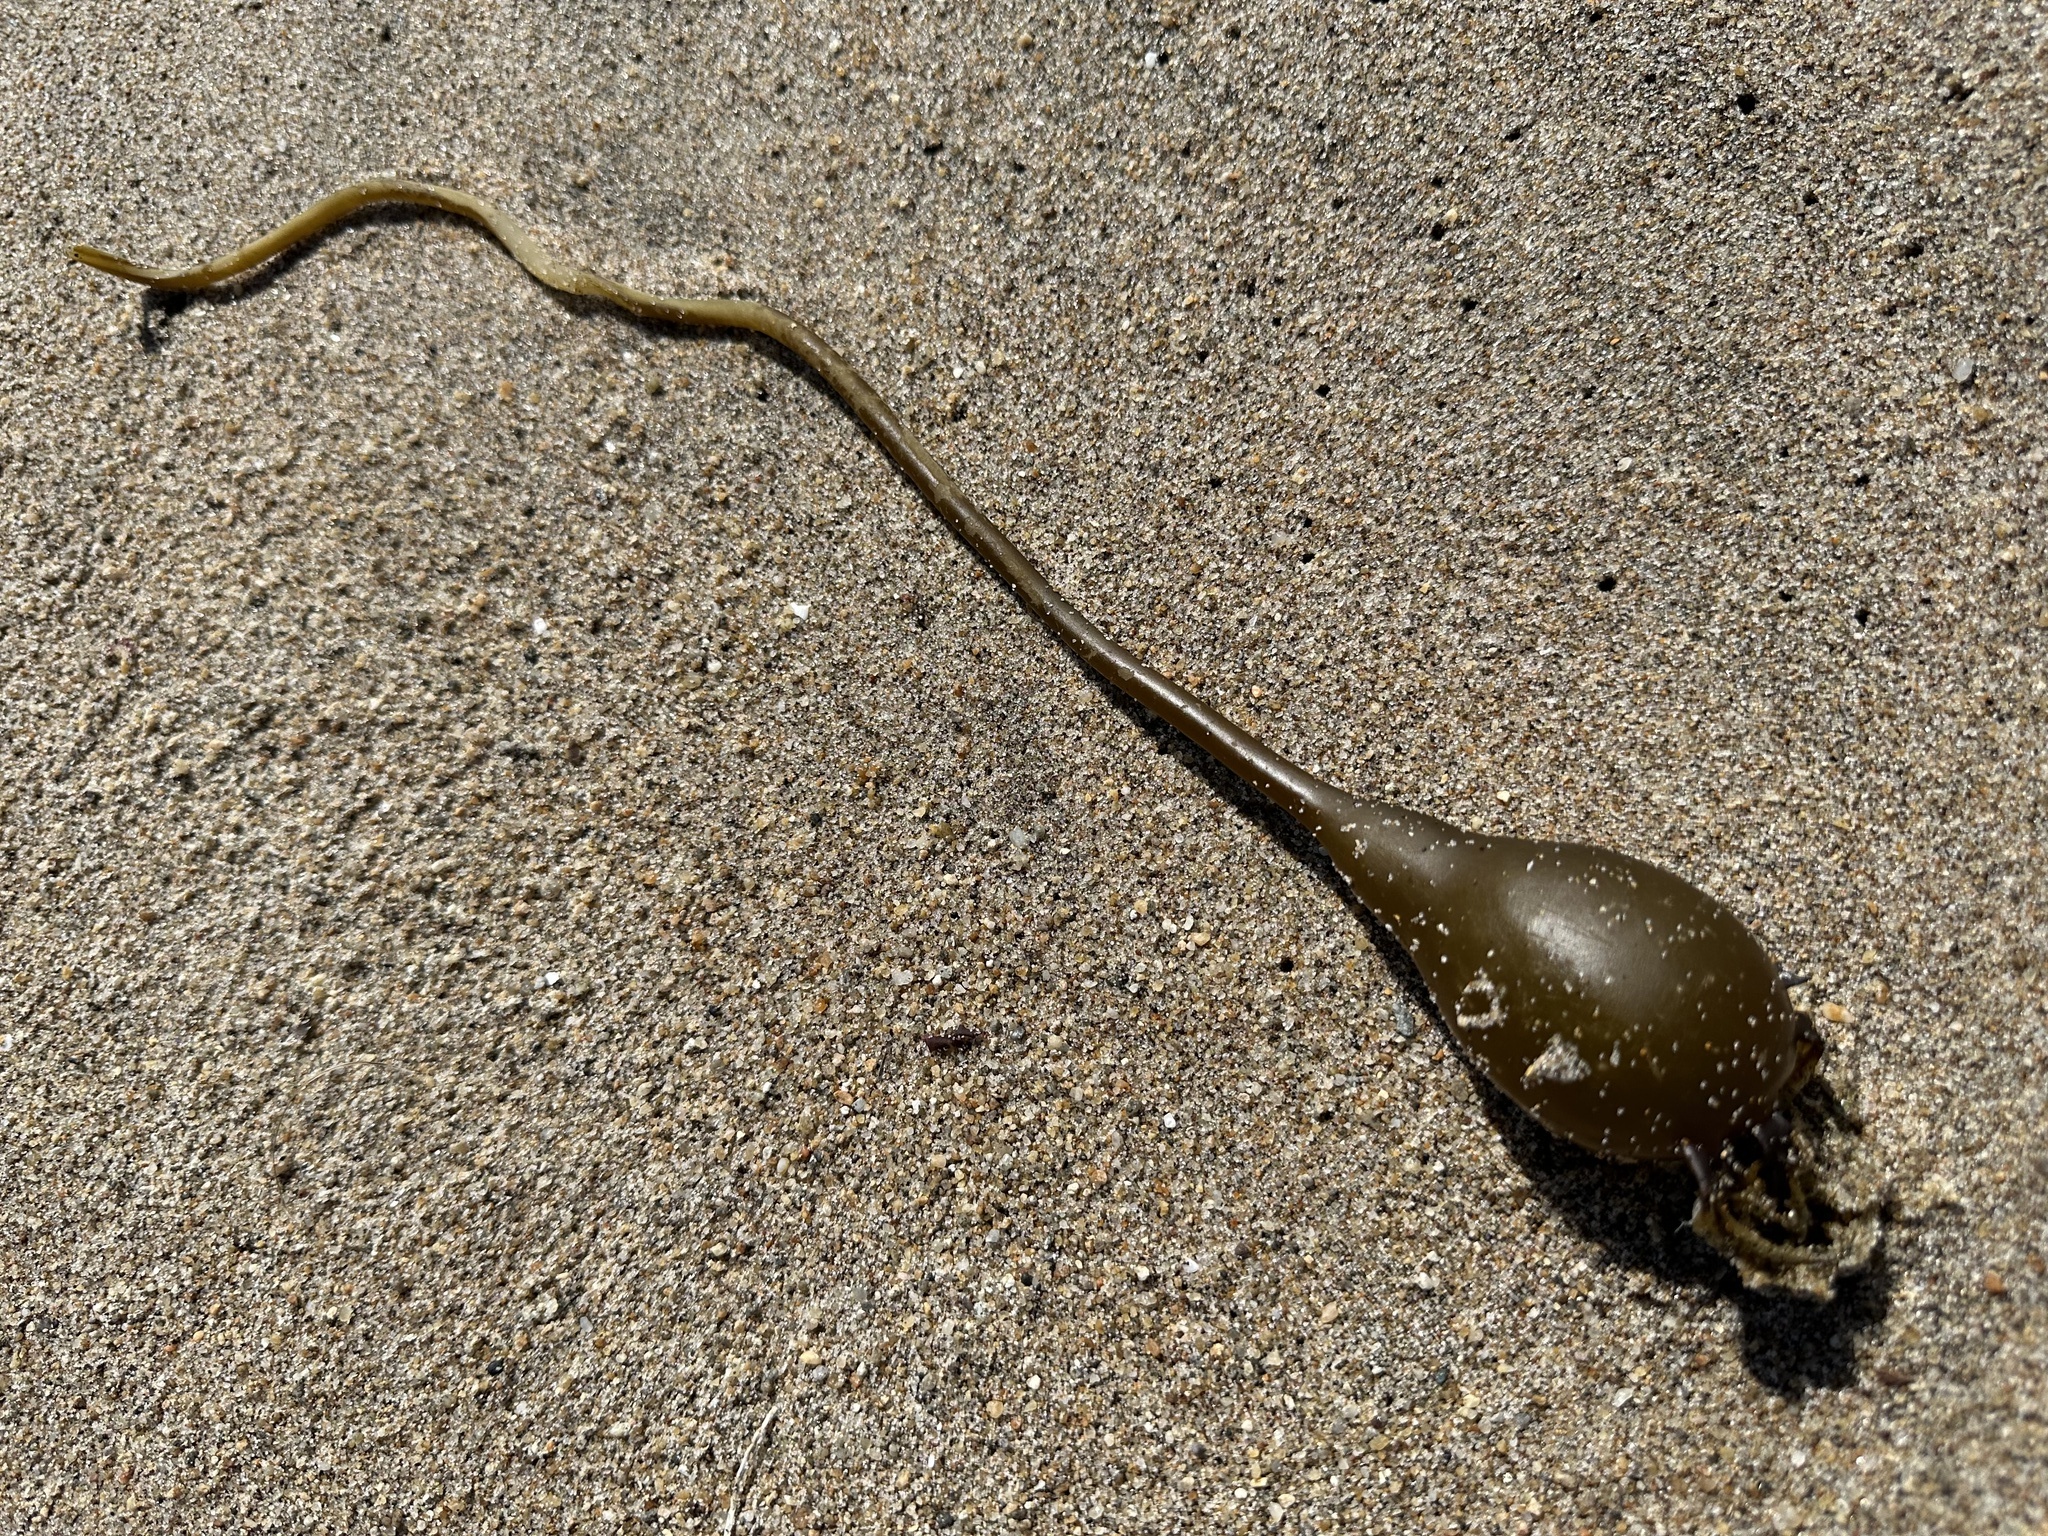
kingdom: Chromista
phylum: Ochrophyta
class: Phaeophyceae
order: Laminariales
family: Laminariaceae
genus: Nereocystis
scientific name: Nereocystis luetkeana
